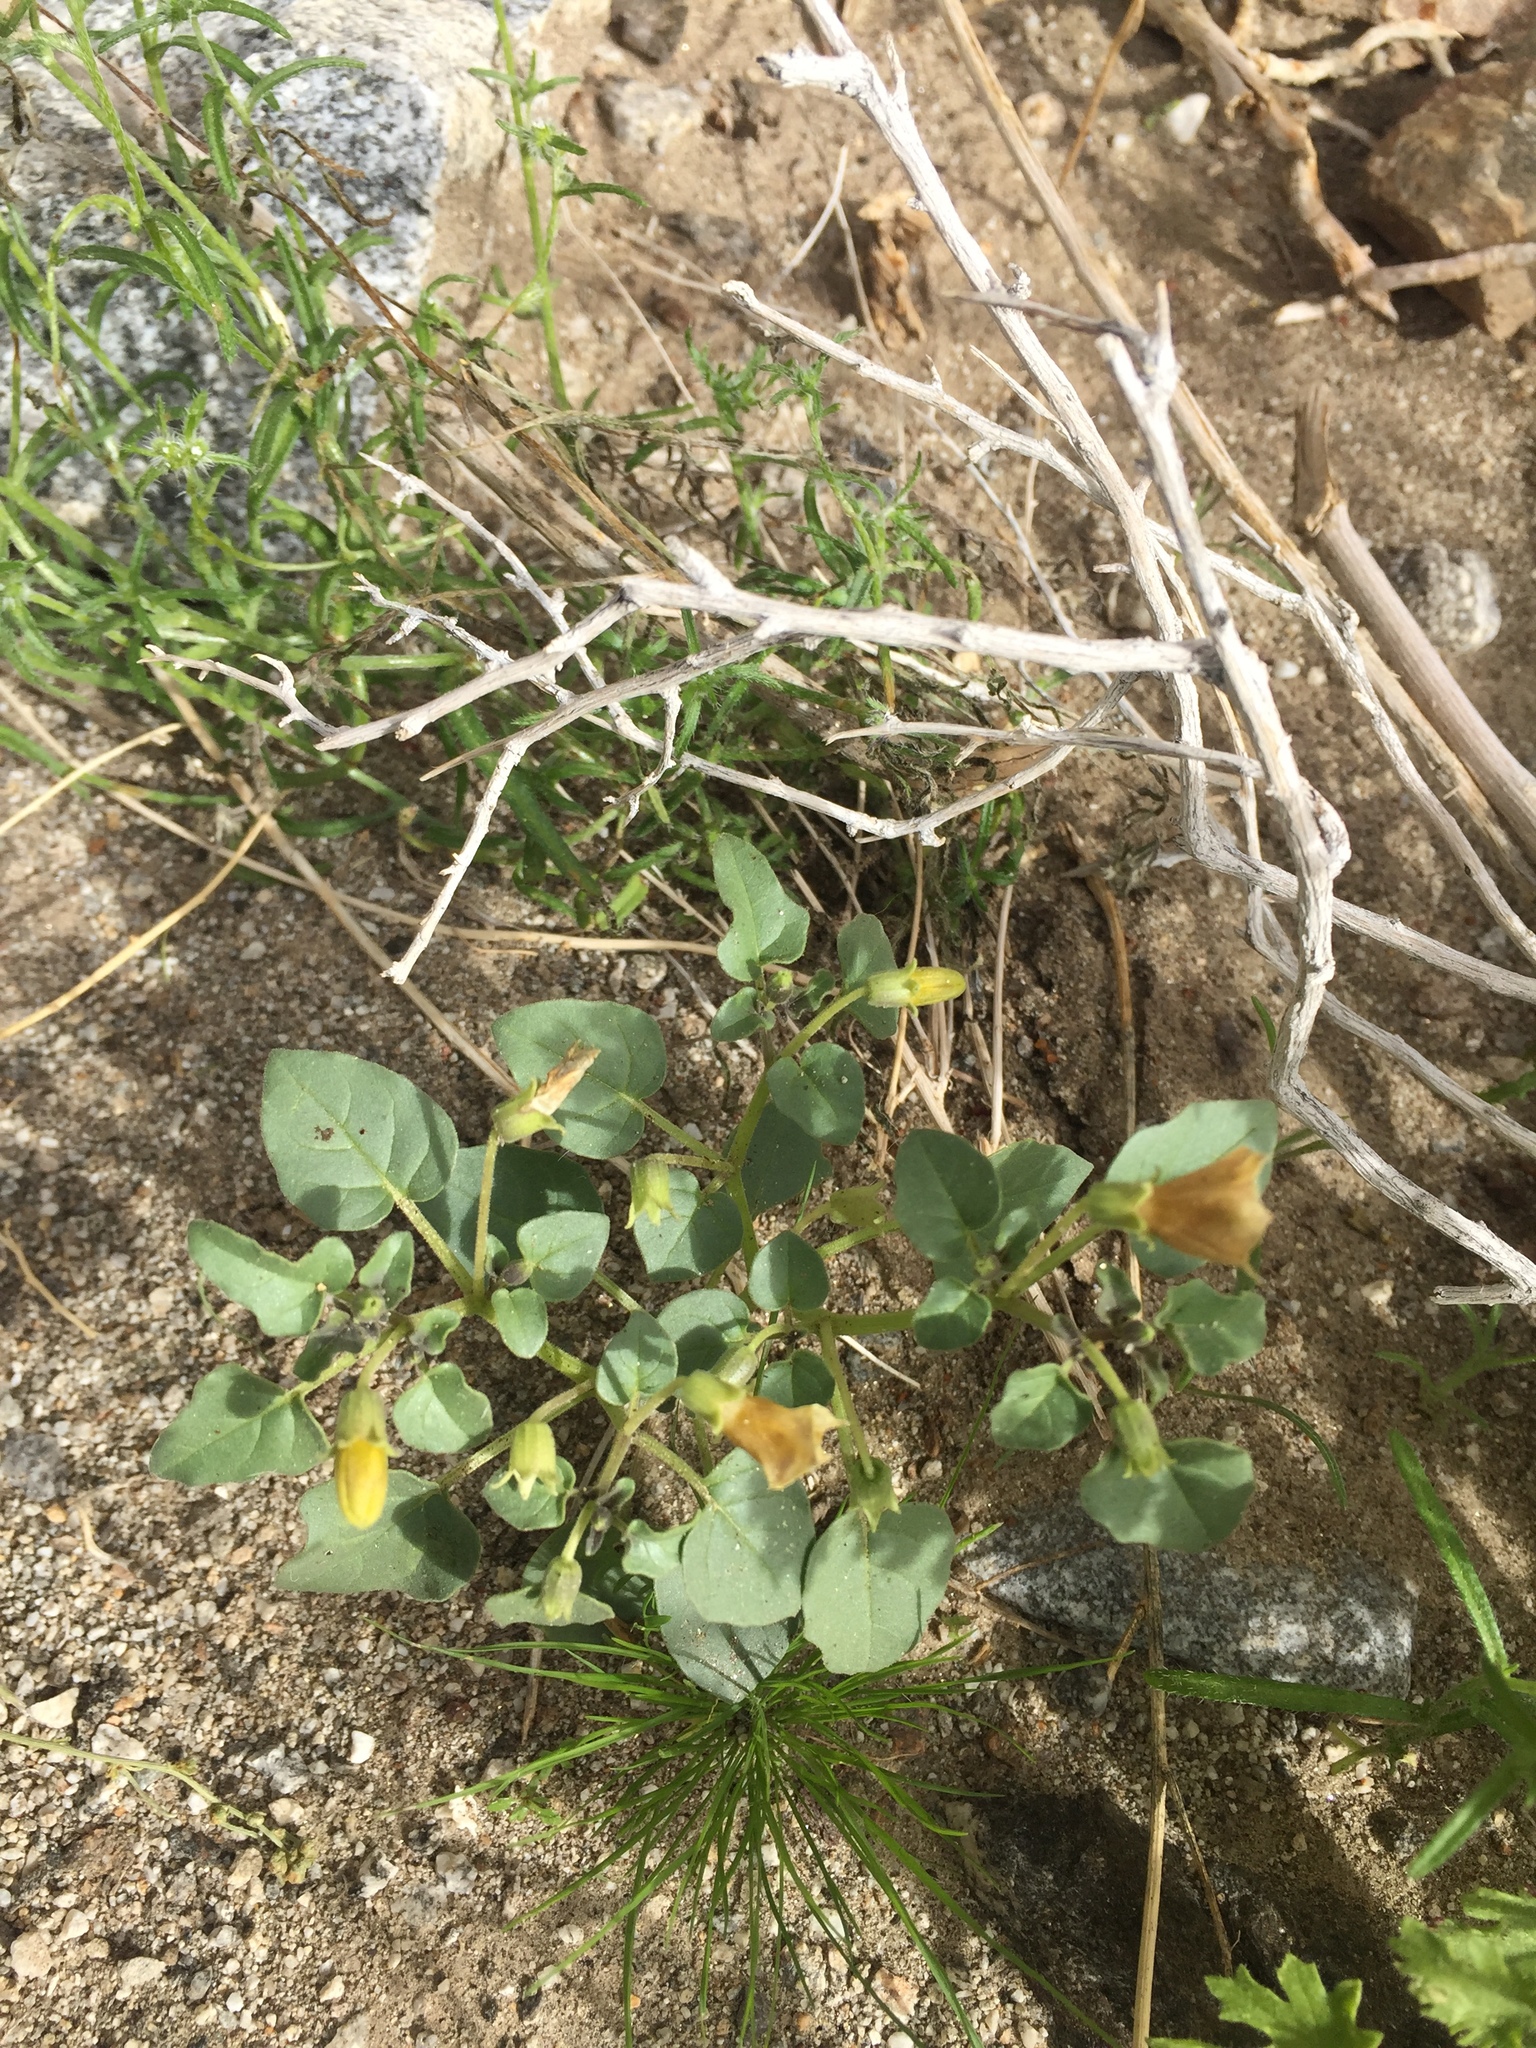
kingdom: Plantae
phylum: Tracheophyta
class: Magnoliopsida
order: Solanales
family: Solanaceae
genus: Physalis
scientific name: Physalis crassifolia
